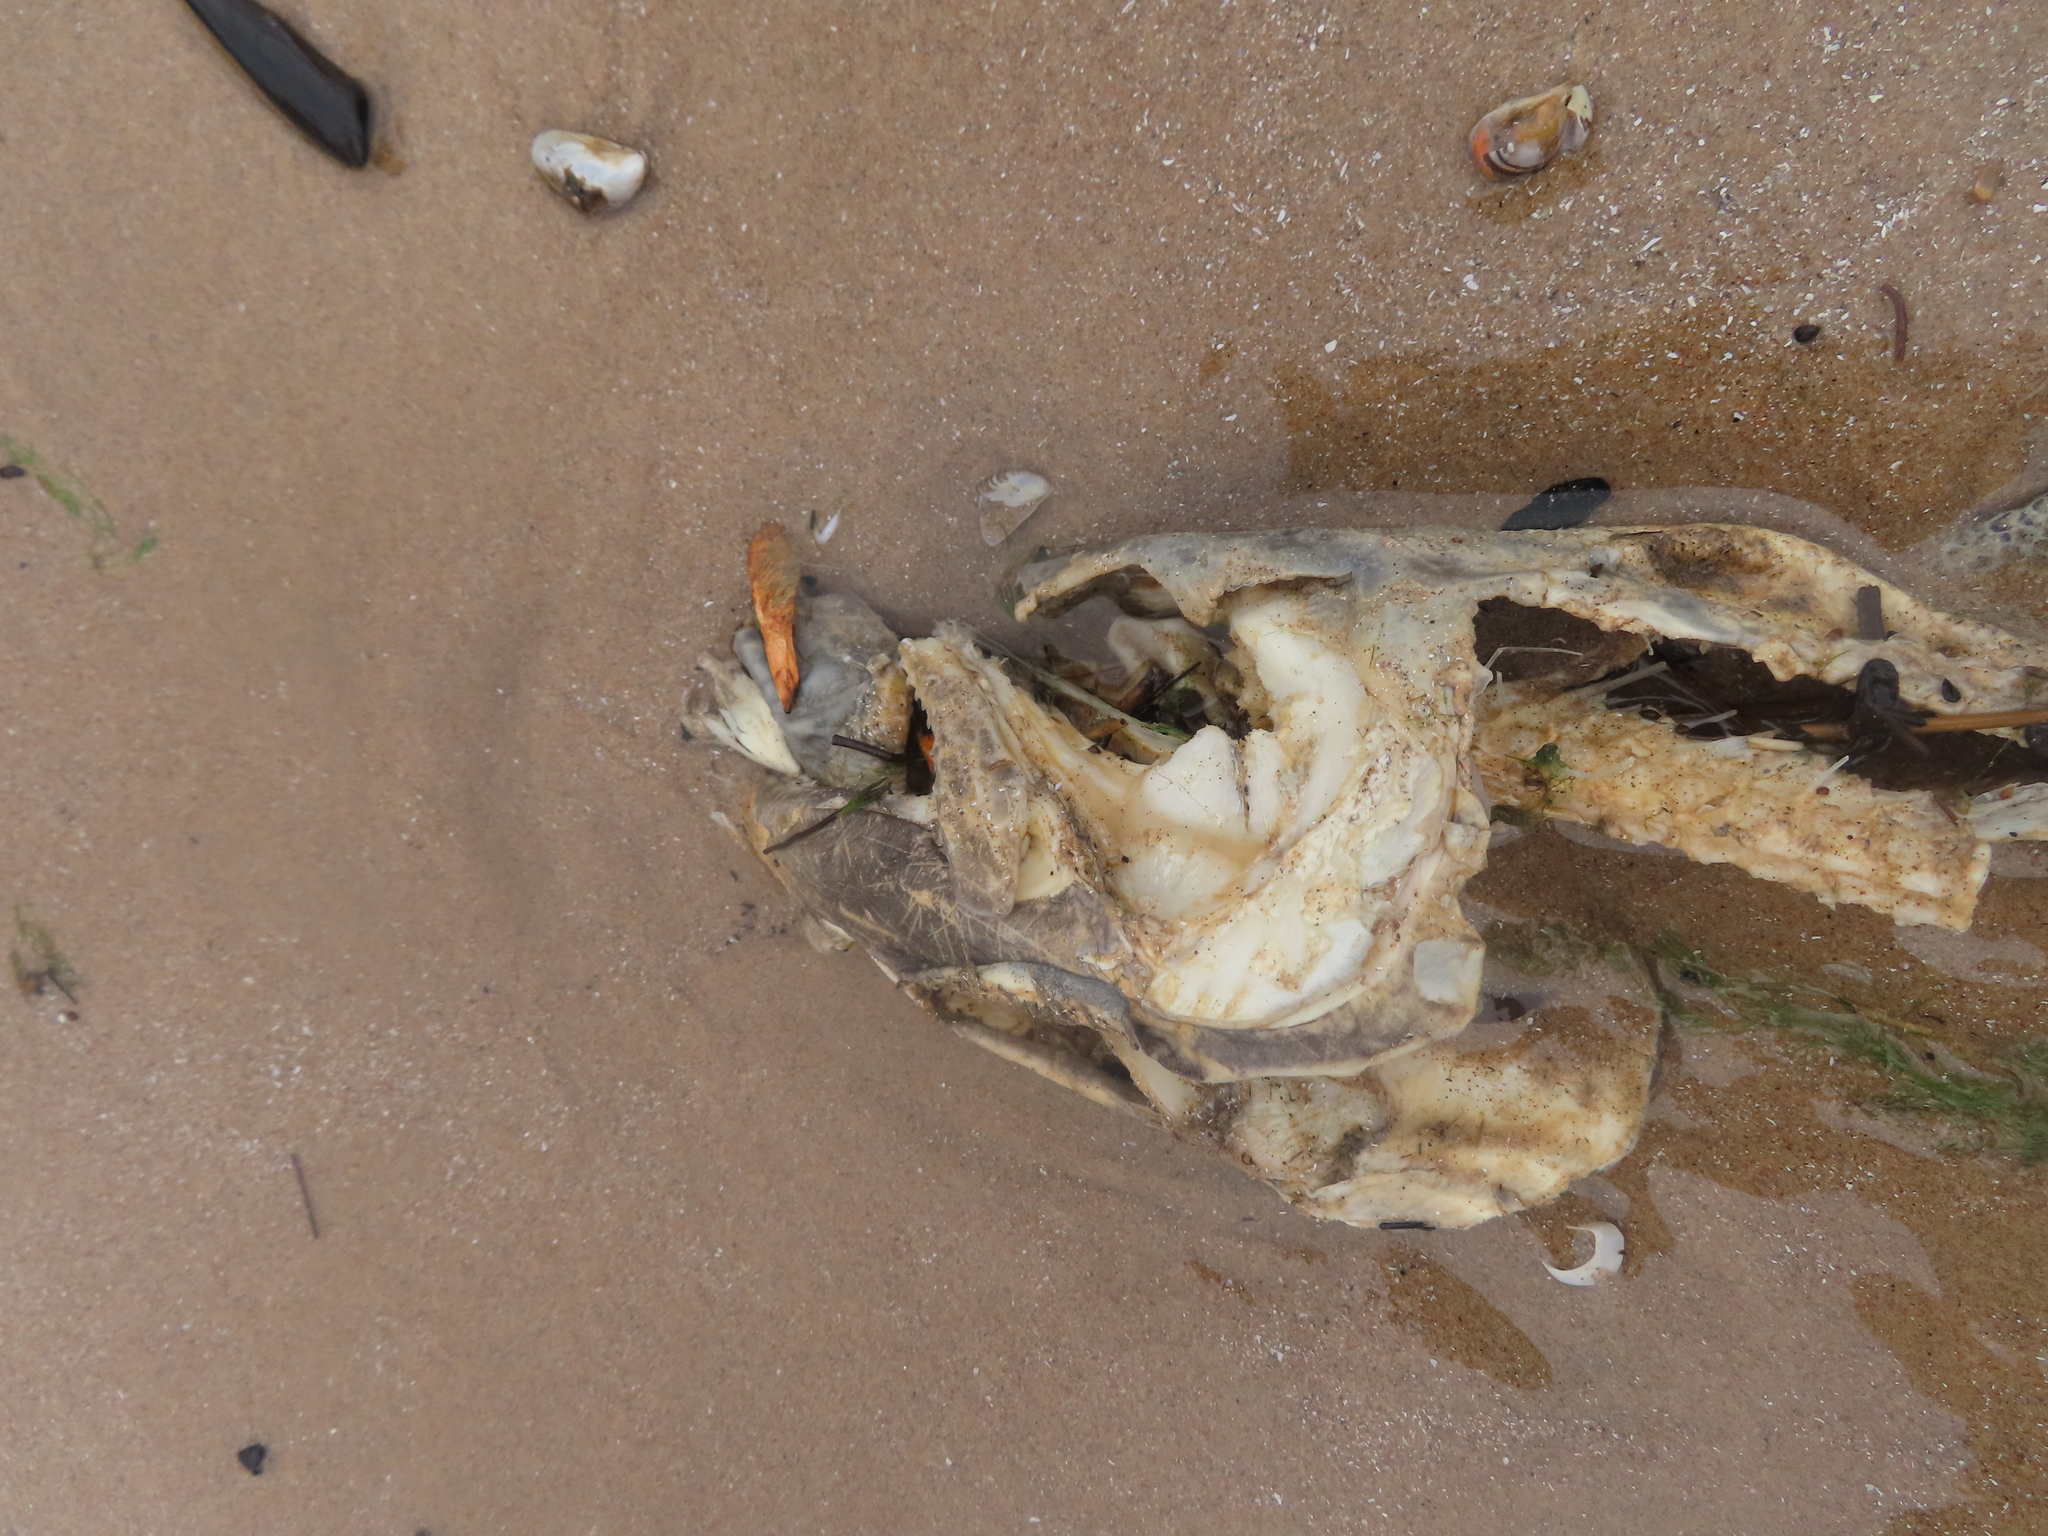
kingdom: Animalia
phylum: Chordata
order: Salmoniformes
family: Salmonidae
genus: Salmo
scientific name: Salmo trutta
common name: Brown trout
